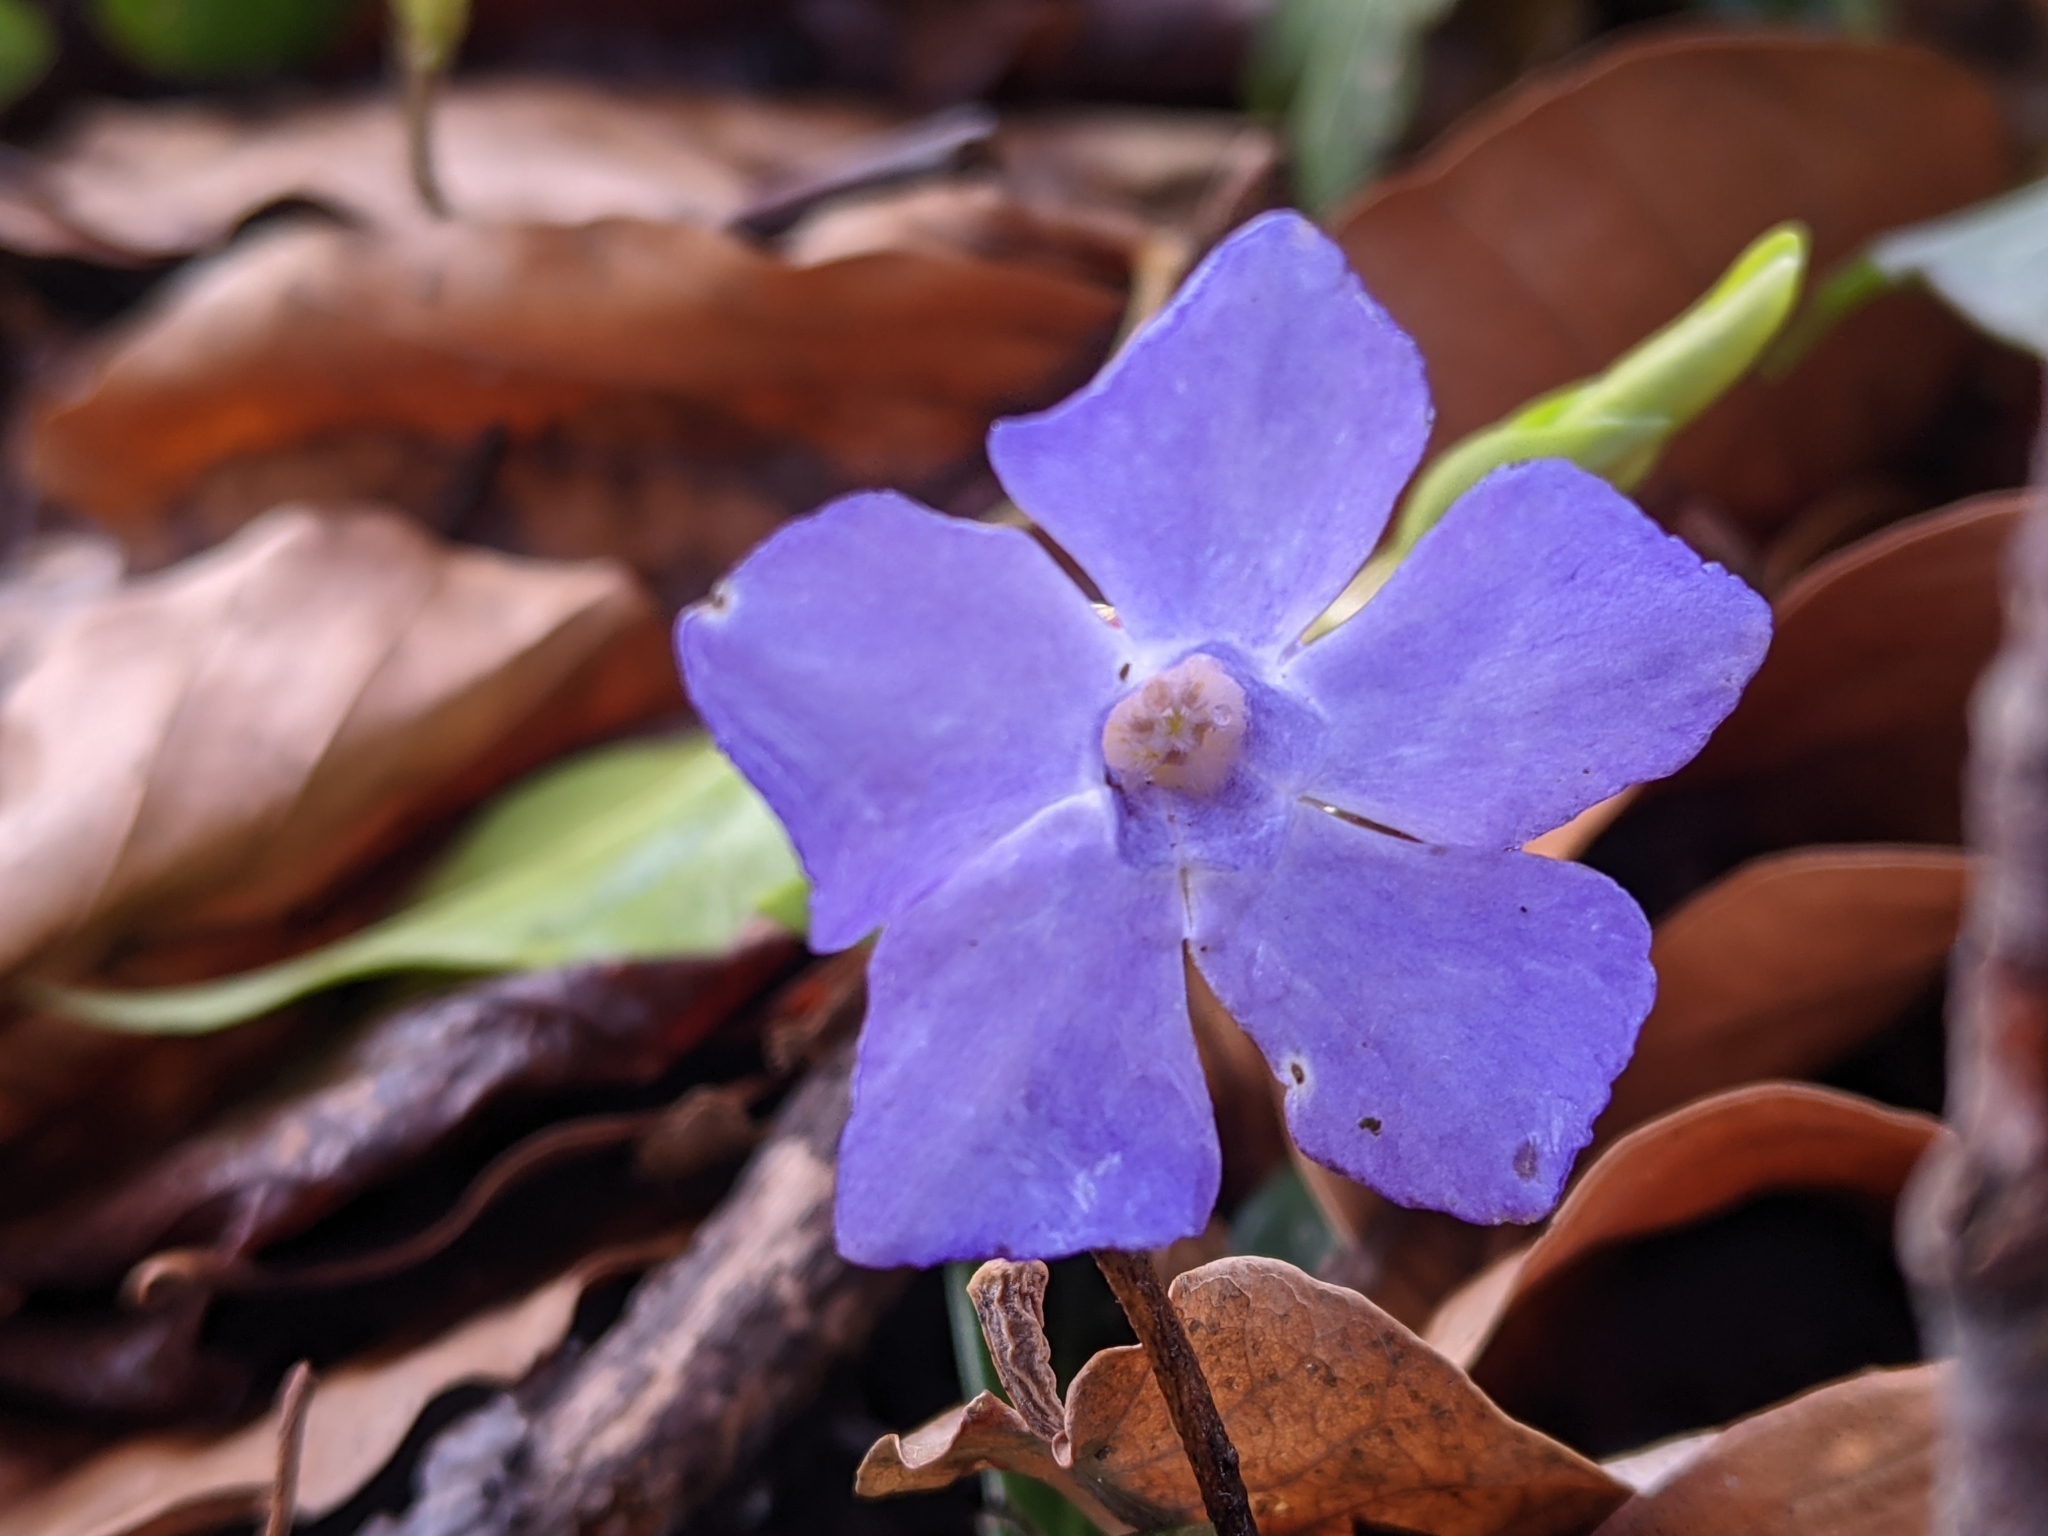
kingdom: Plantae
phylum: Tracheophyta
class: Magnoliopsida
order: Gentianales
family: Apocynaceae
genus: Vinca
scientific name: Vinca minor
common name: Lesser periwinkle
